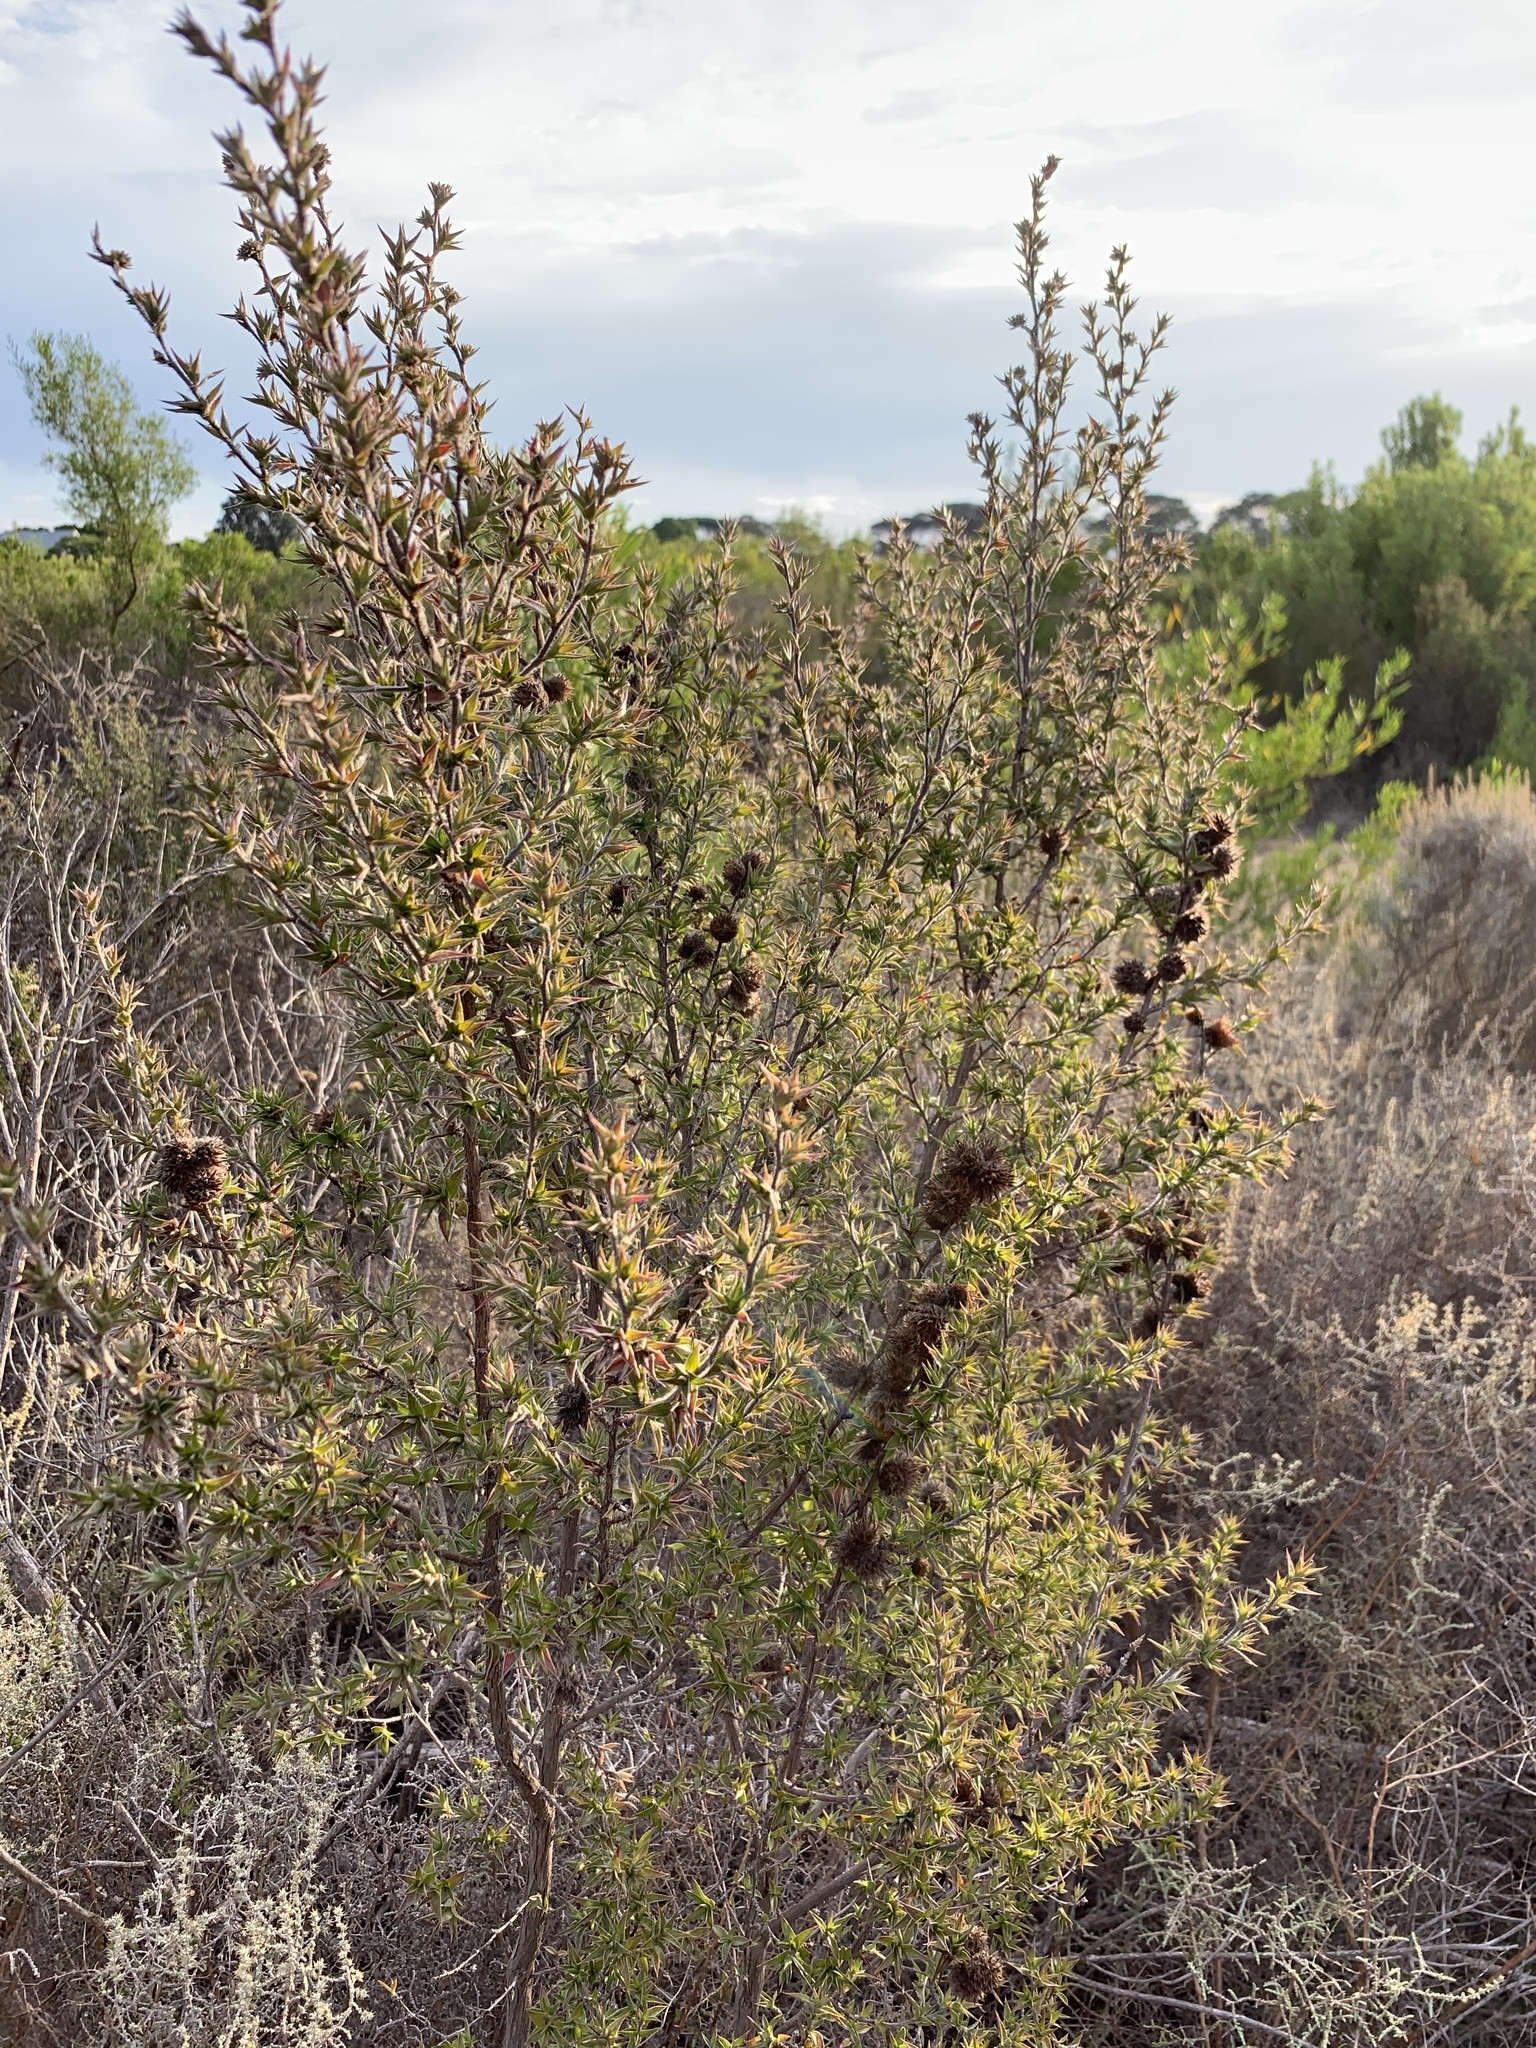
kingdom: Plantae
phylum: Tracheophyta
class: Magnoliopsida
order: Rosales
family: Rosaceae
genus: Cliffortia
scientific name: Cliffortia ruscifolia
